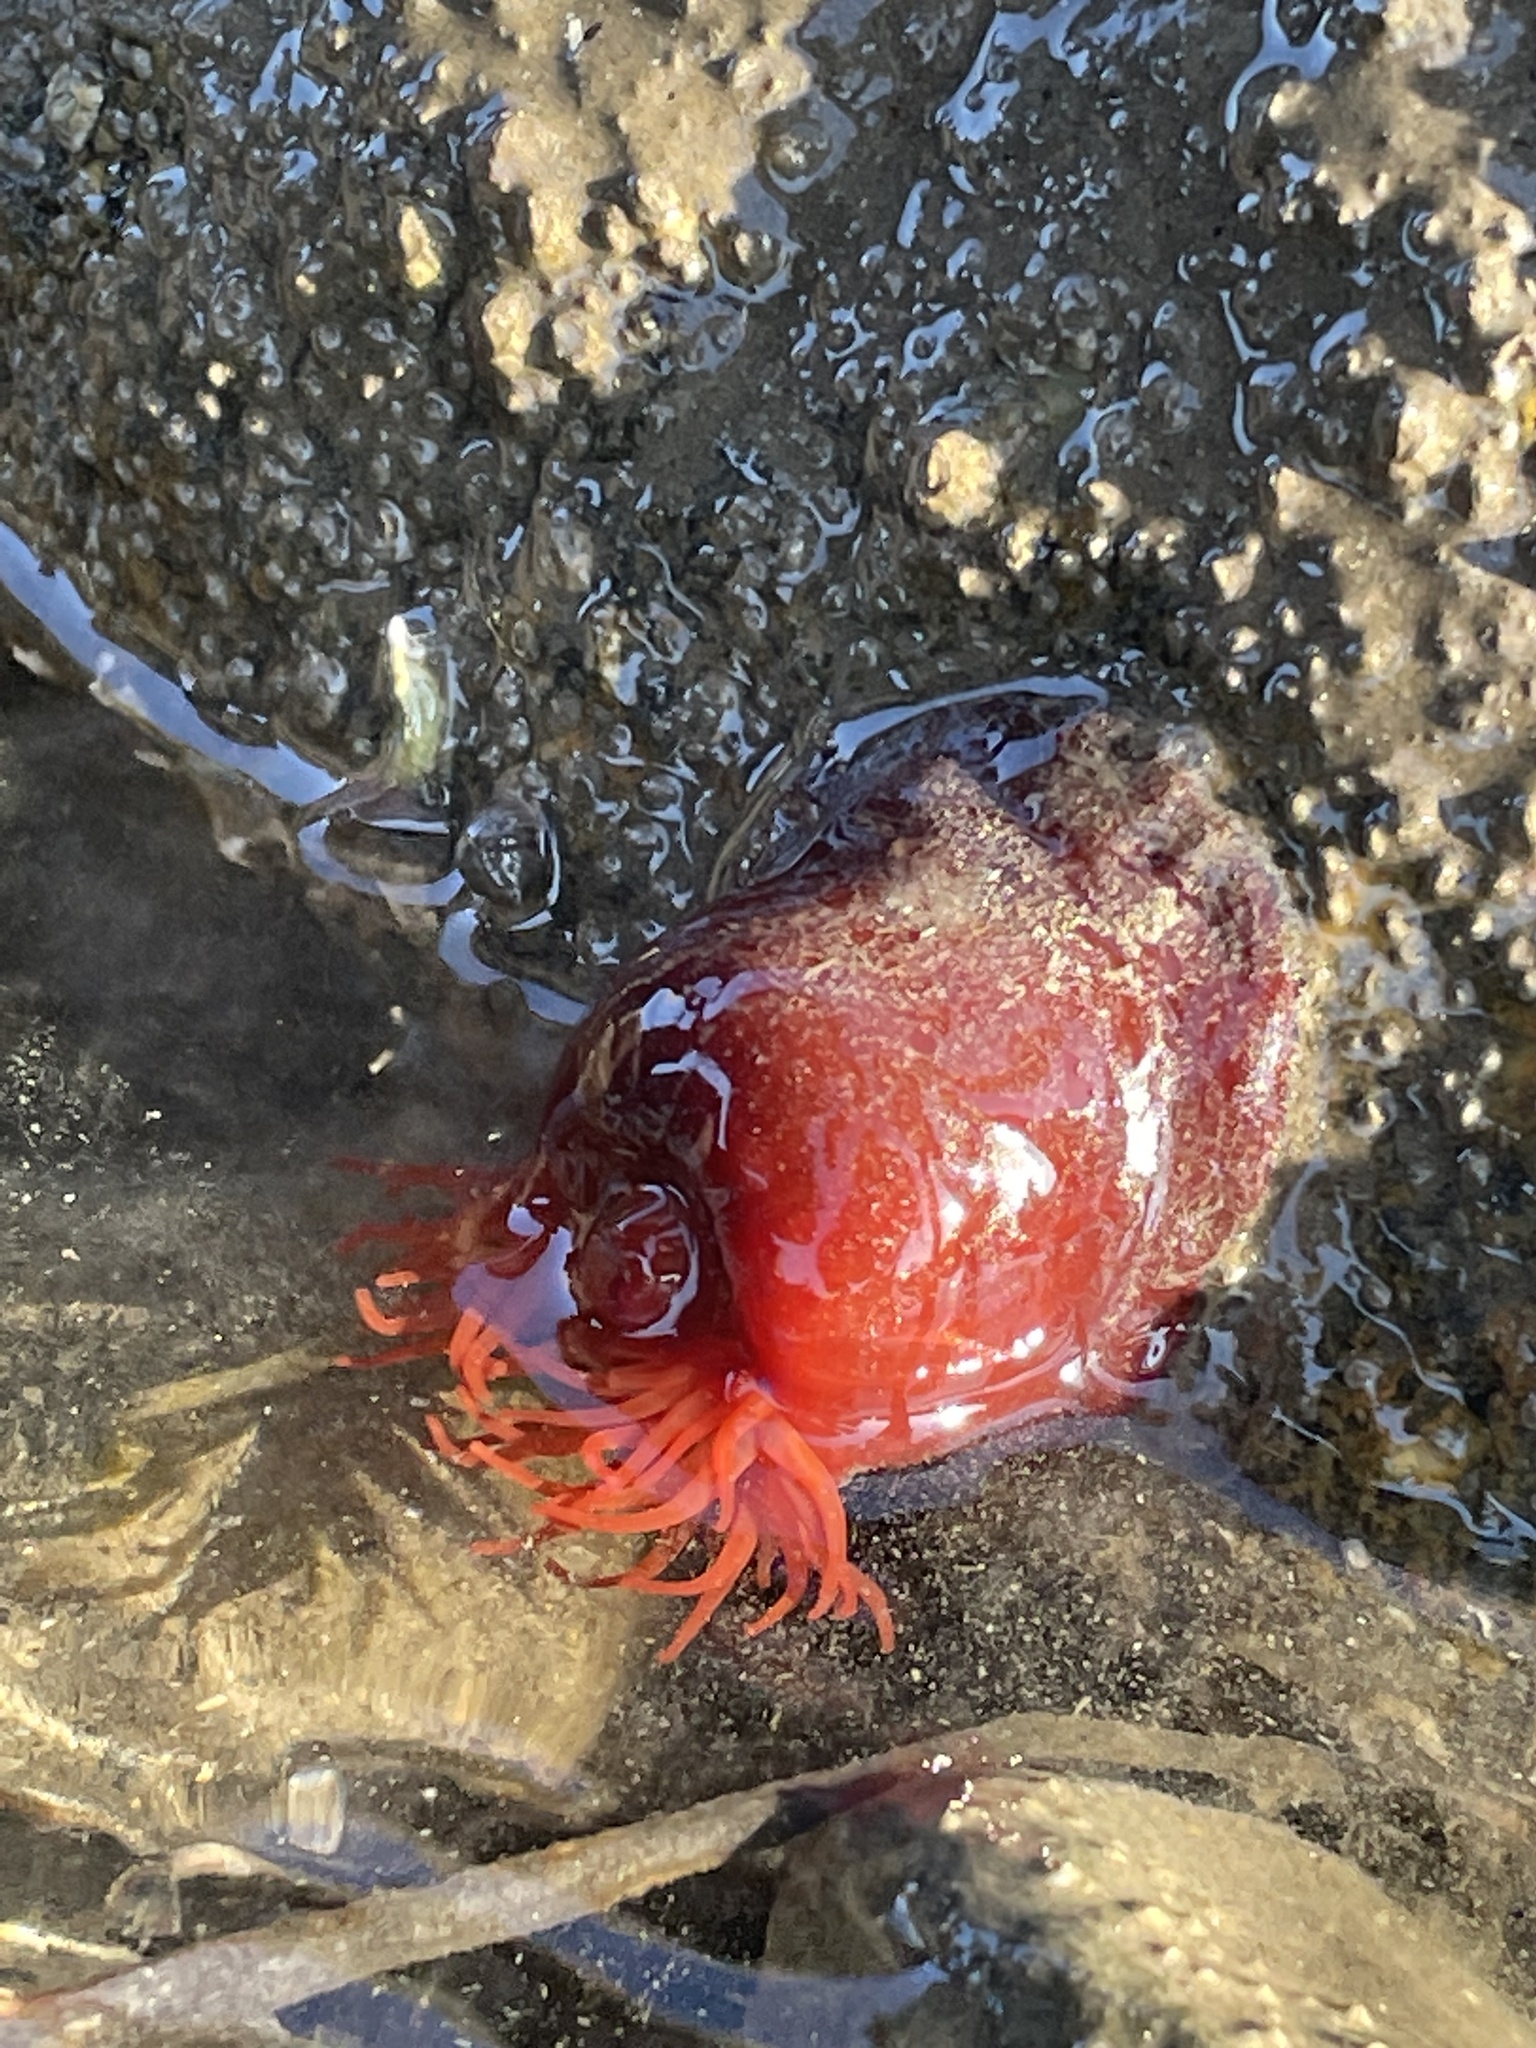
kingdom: Animalia
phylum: Cnidaria
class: Anthozoa
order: Actiniaria
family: Actiniidae
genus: Actinia
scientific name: Actinia equina
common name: Beadlet anemone
